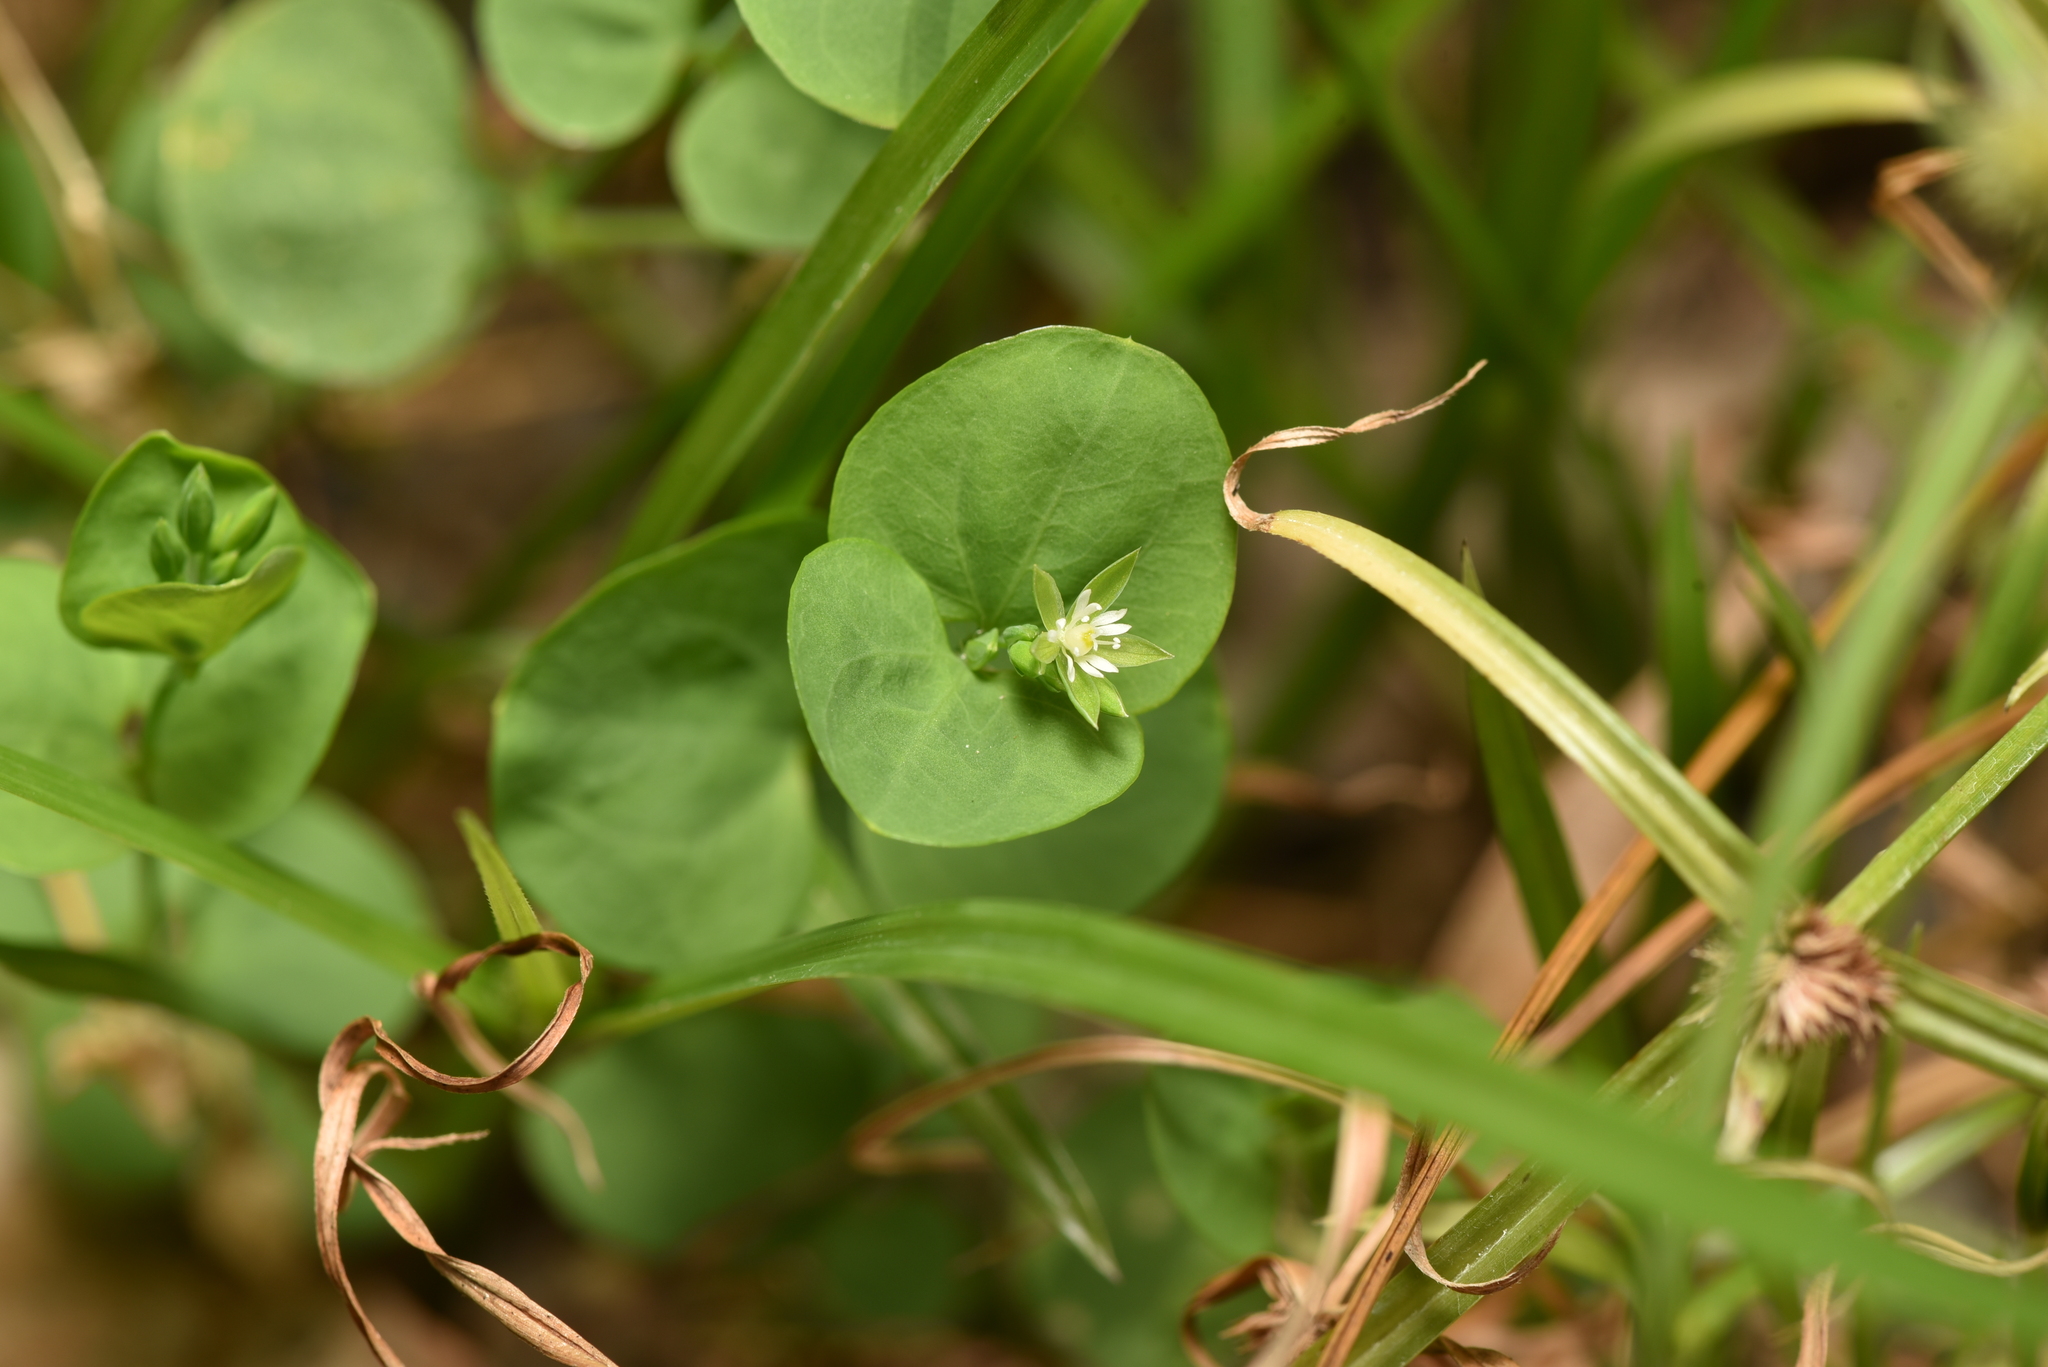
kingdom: Plantae
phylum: Tracheophyta
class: Magnoliopsida
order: Caryophyllales
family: Caryophyllaceae
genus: Drymaria
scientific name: Drymaria cordata
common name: Whitesnow
